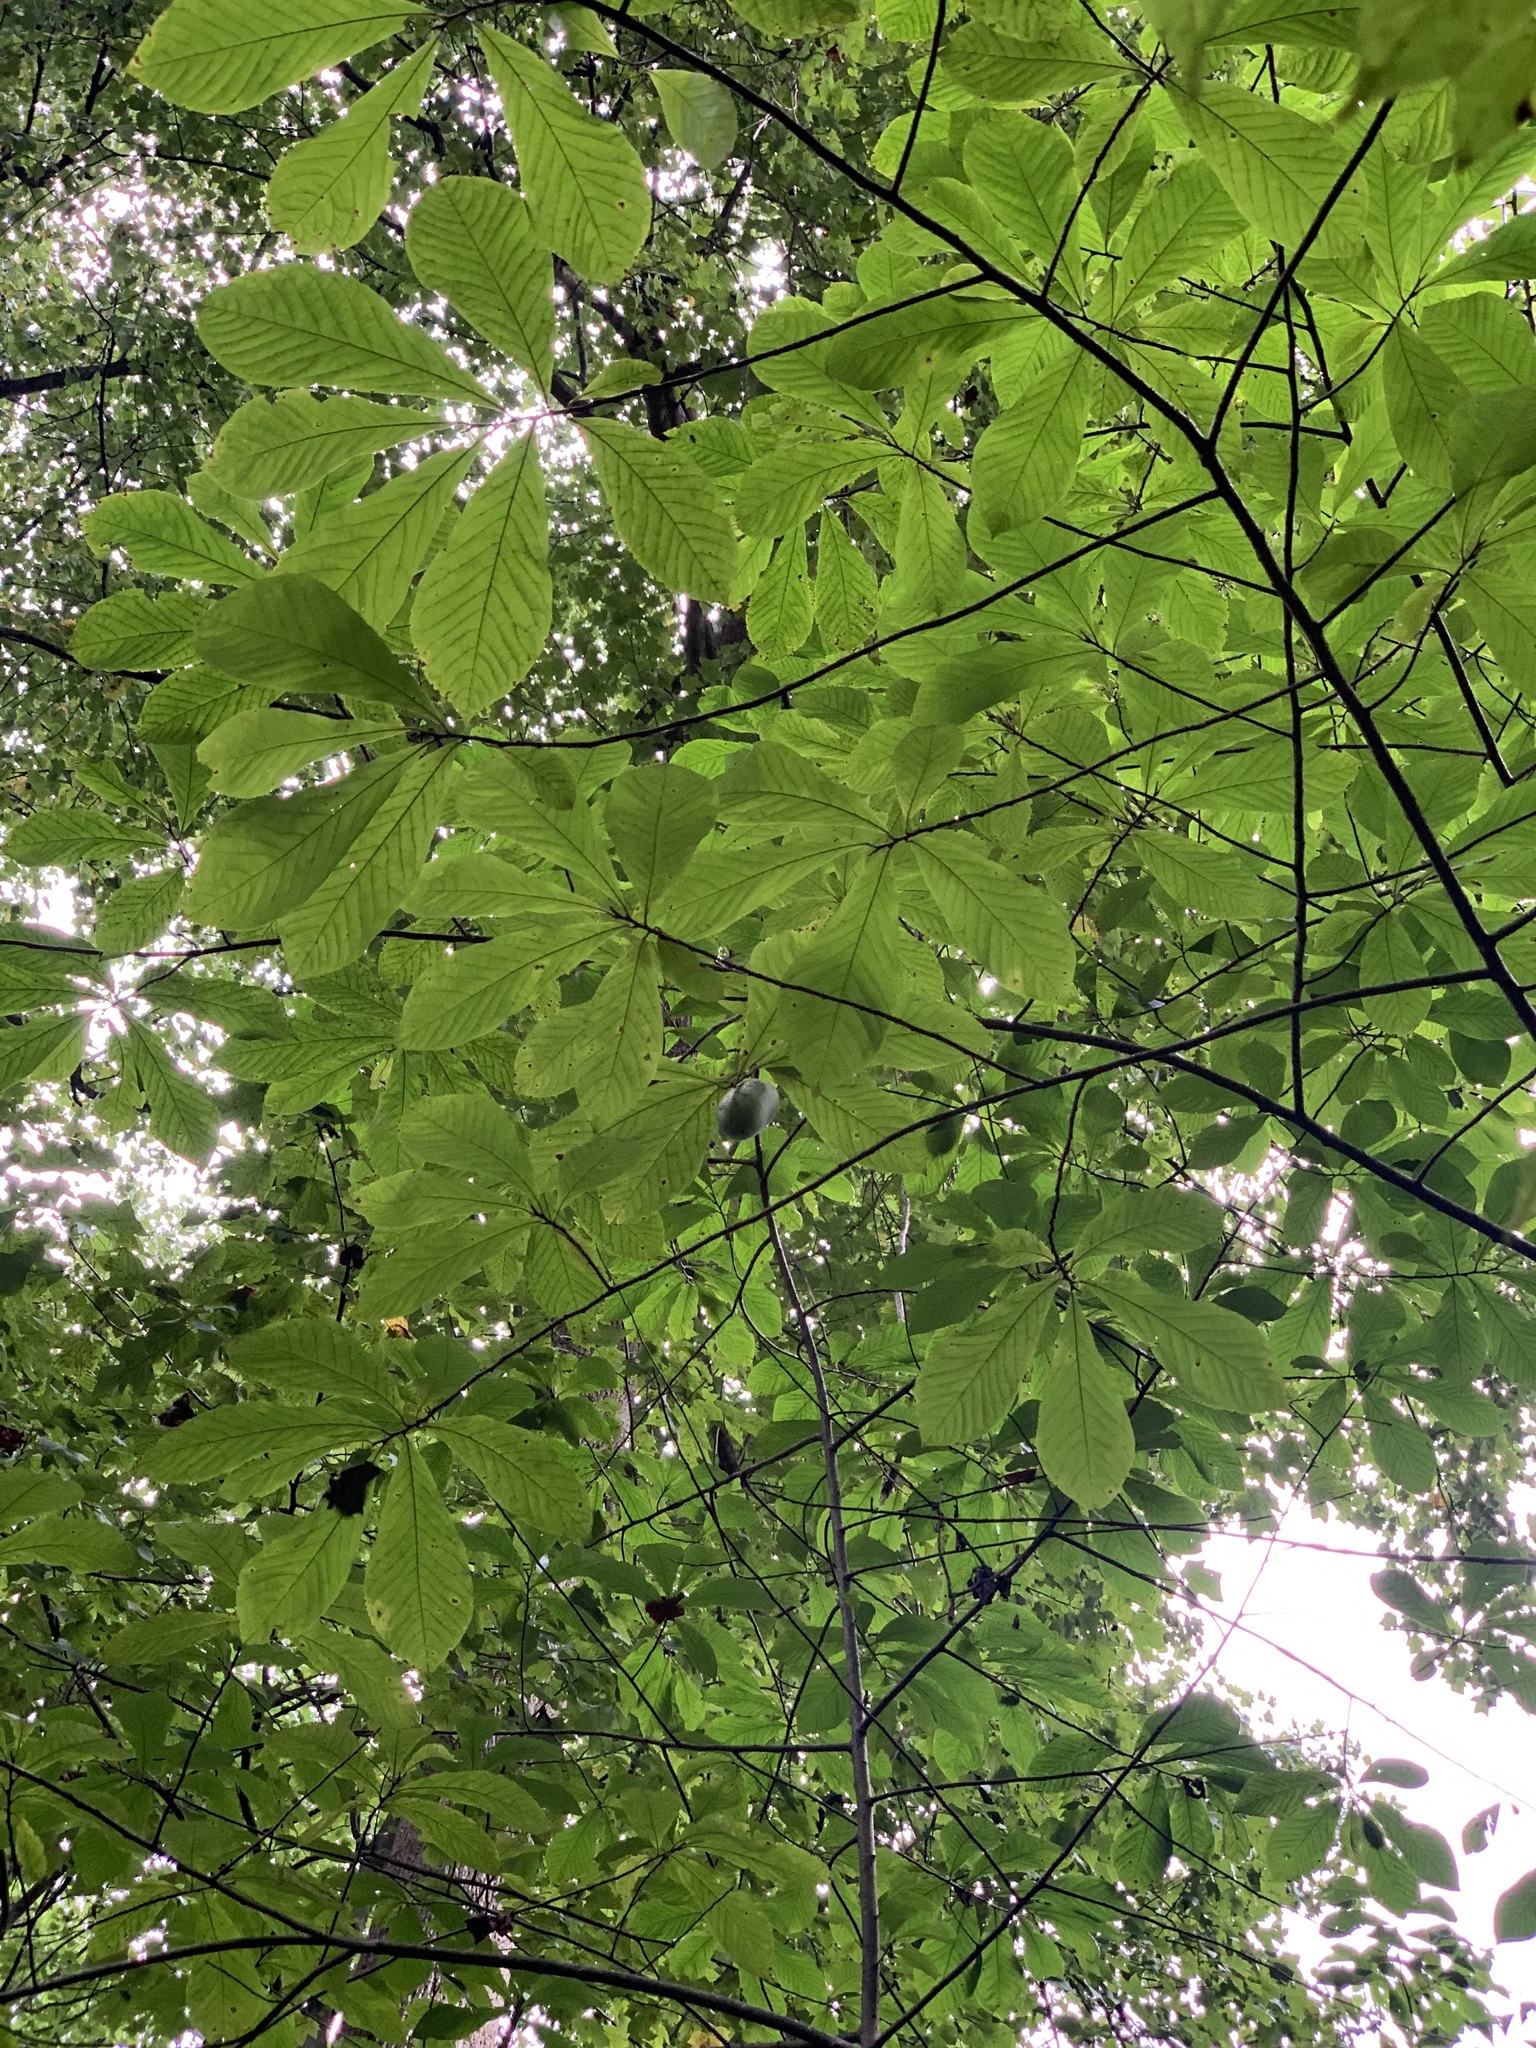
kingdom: Plantae
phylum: Tracheophyta
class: Magnoliopsida
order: Magnoliales
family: Annonaceae
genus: Asimina
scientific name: Asimina triloba
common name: Dog-banana
